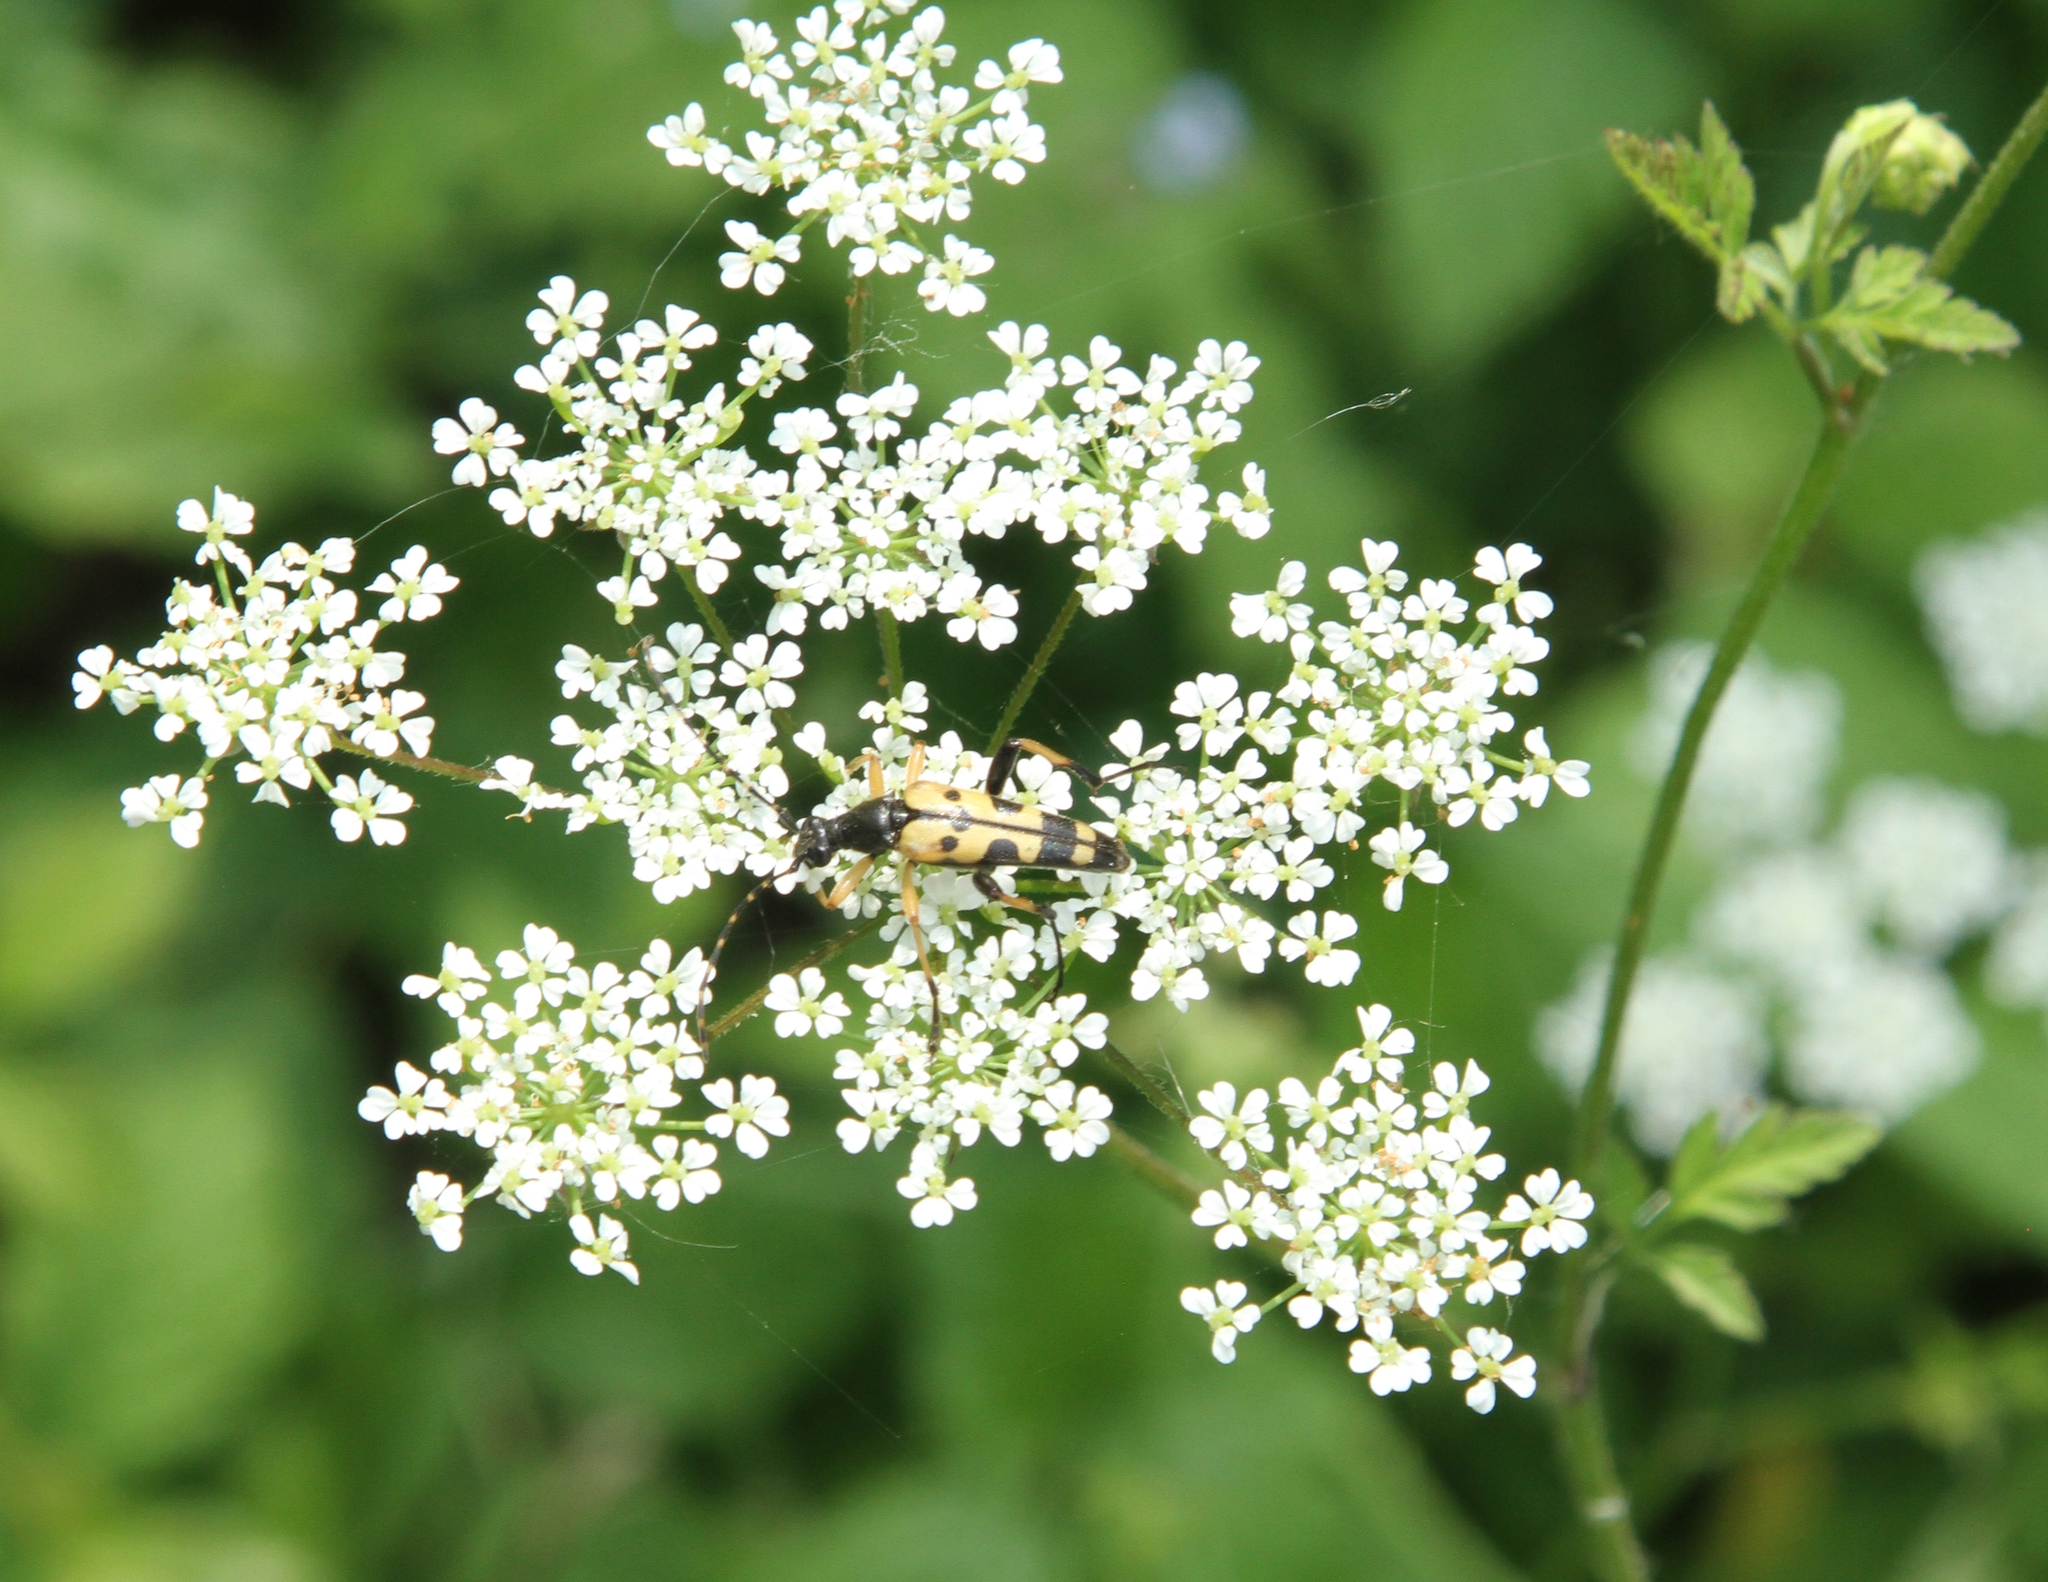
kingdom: Animalia
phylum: Arthropoda
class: Insecta
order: Coleoptera
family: Cerambycidae
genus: Rutpela
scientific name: Rutpela maculata
